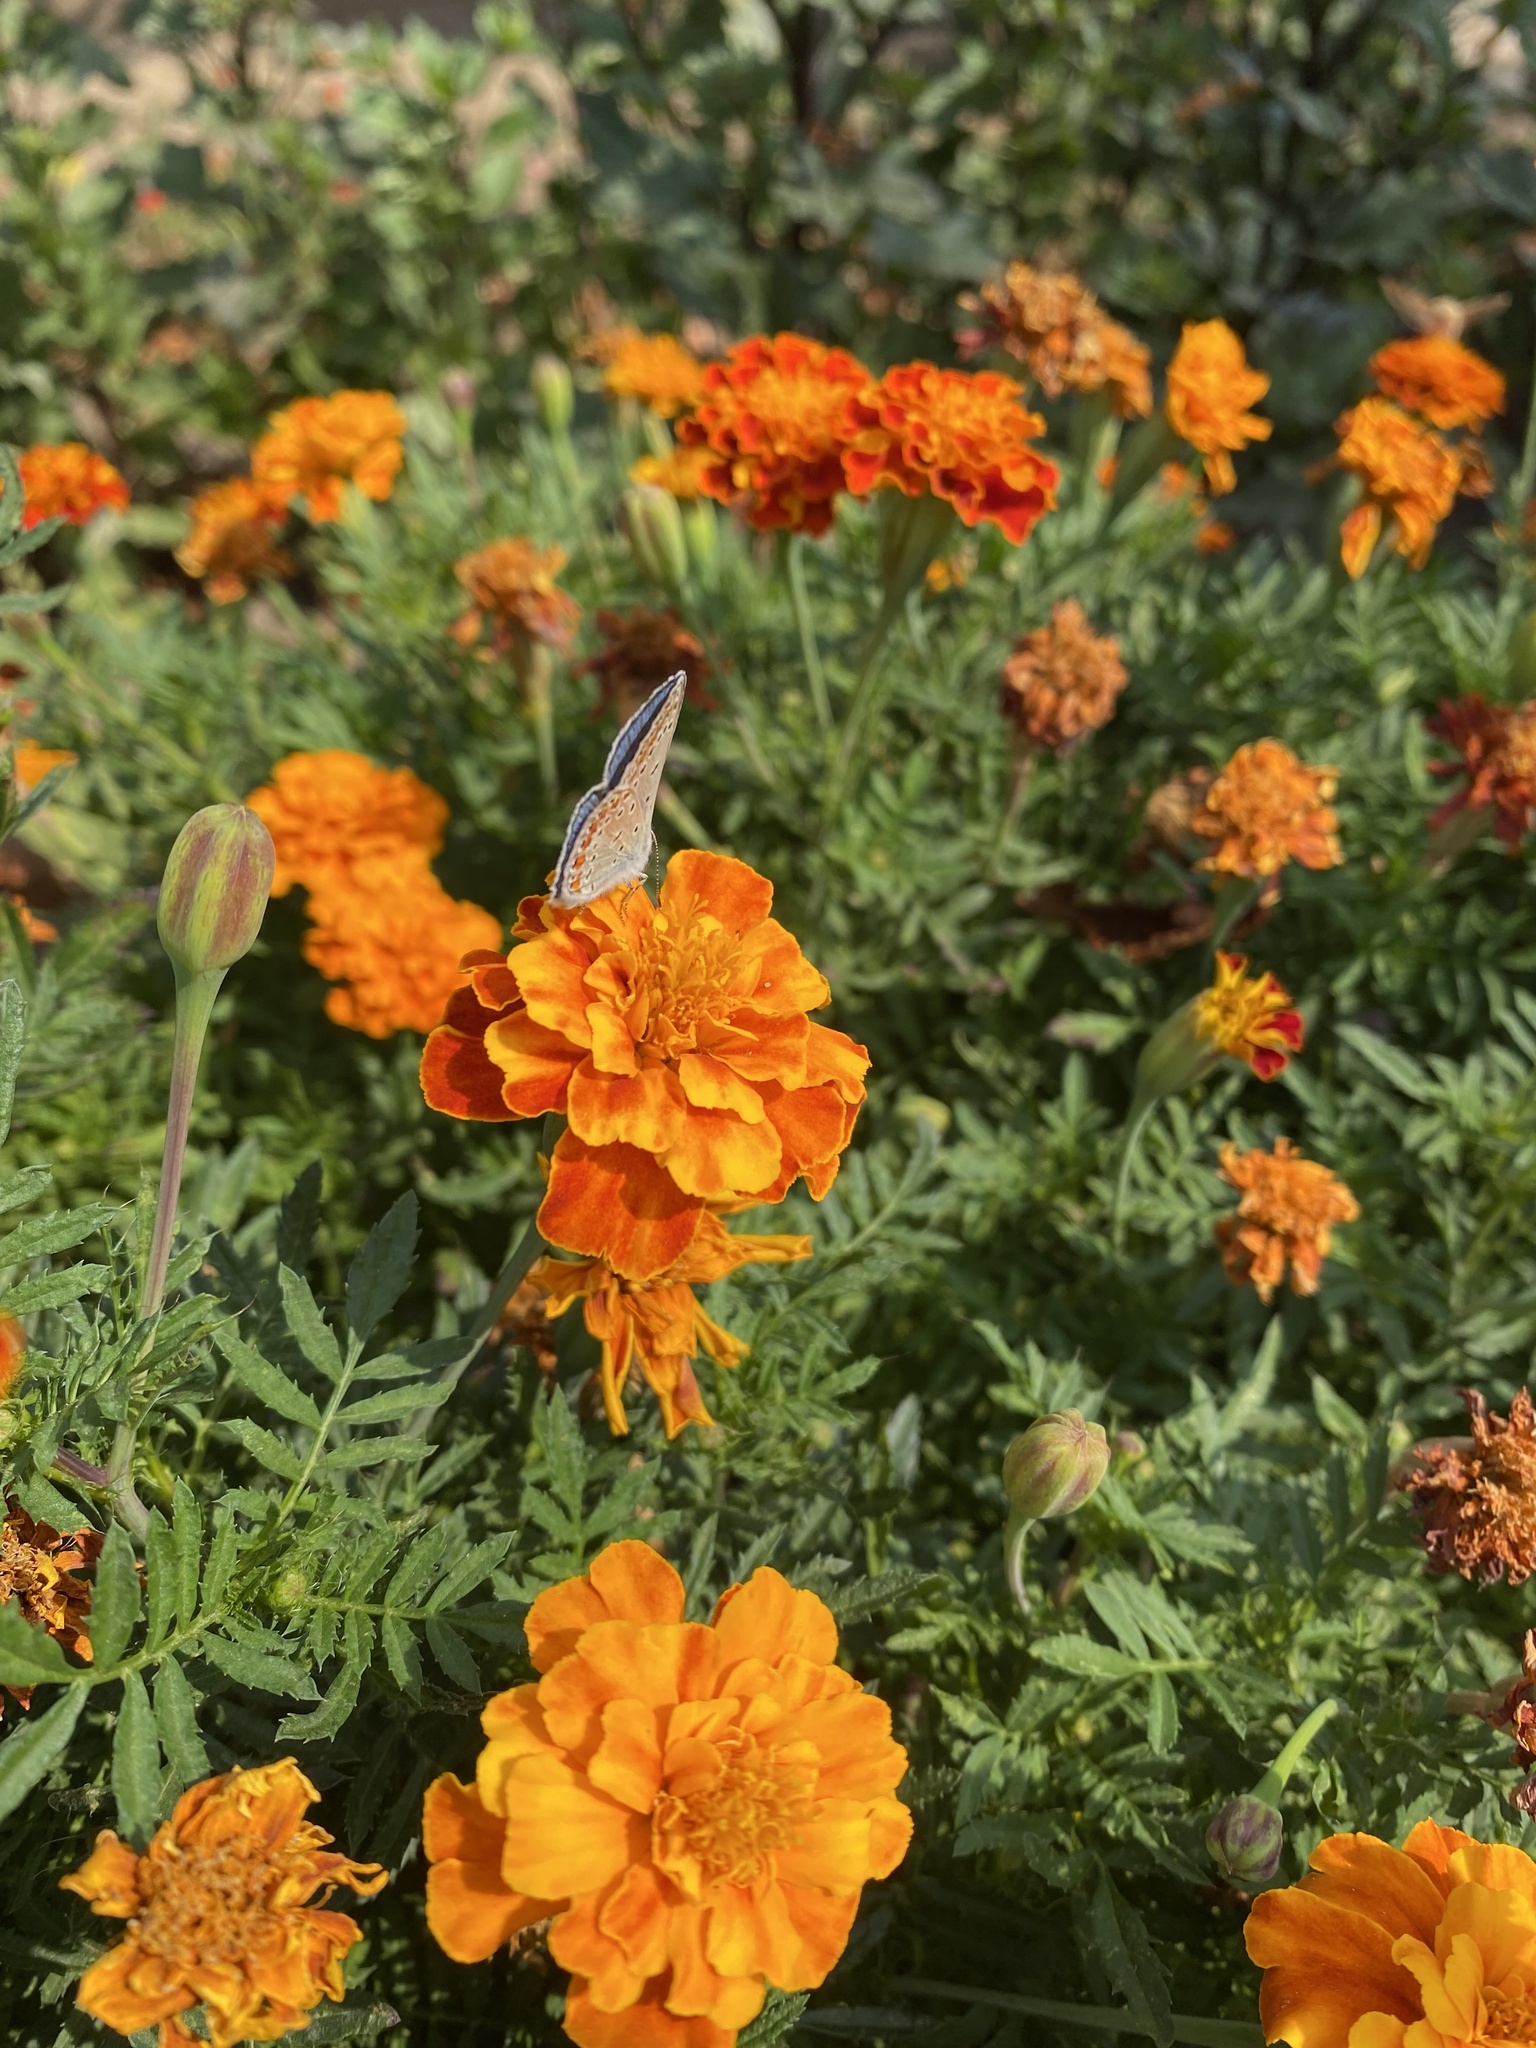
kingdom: Animalia
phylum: Arthropoda
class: Insecta
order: Lepidoptera
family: Lycaenidae
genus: Polyommatus
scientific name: Polyommatus icarus
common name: Common blue
